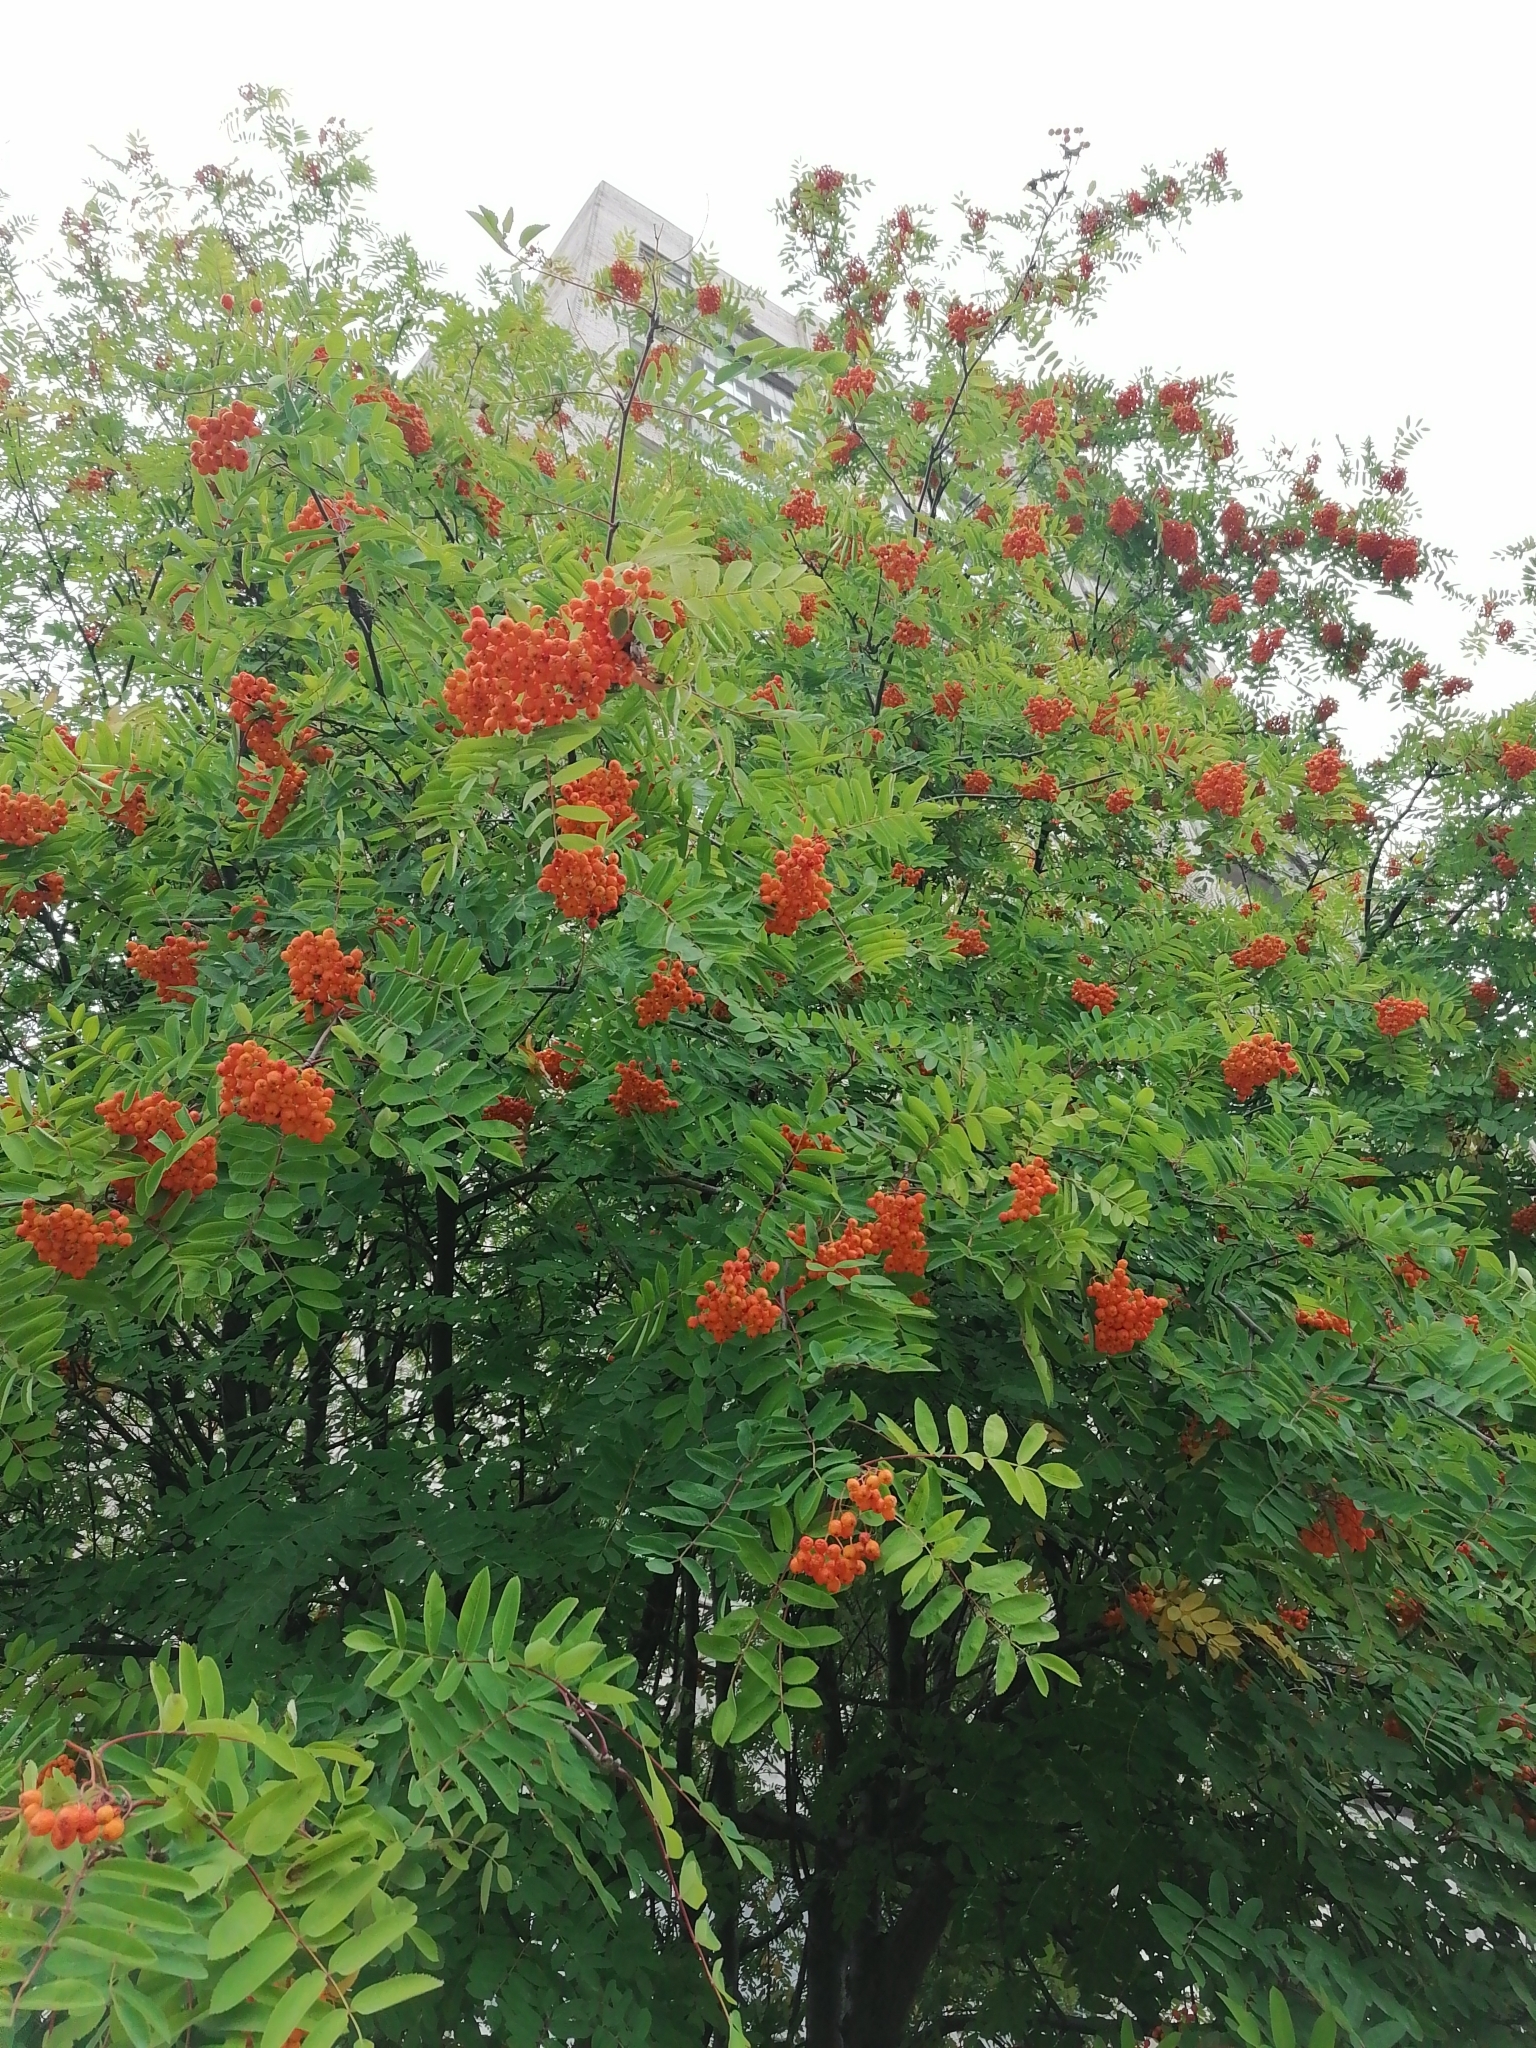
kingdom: Plantae
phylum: Tracheophyta
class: Magnoliopsida
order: Rosales
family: Rosaceae
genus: Sorbus
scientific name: Sorbus aucuparia
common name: Rowan
